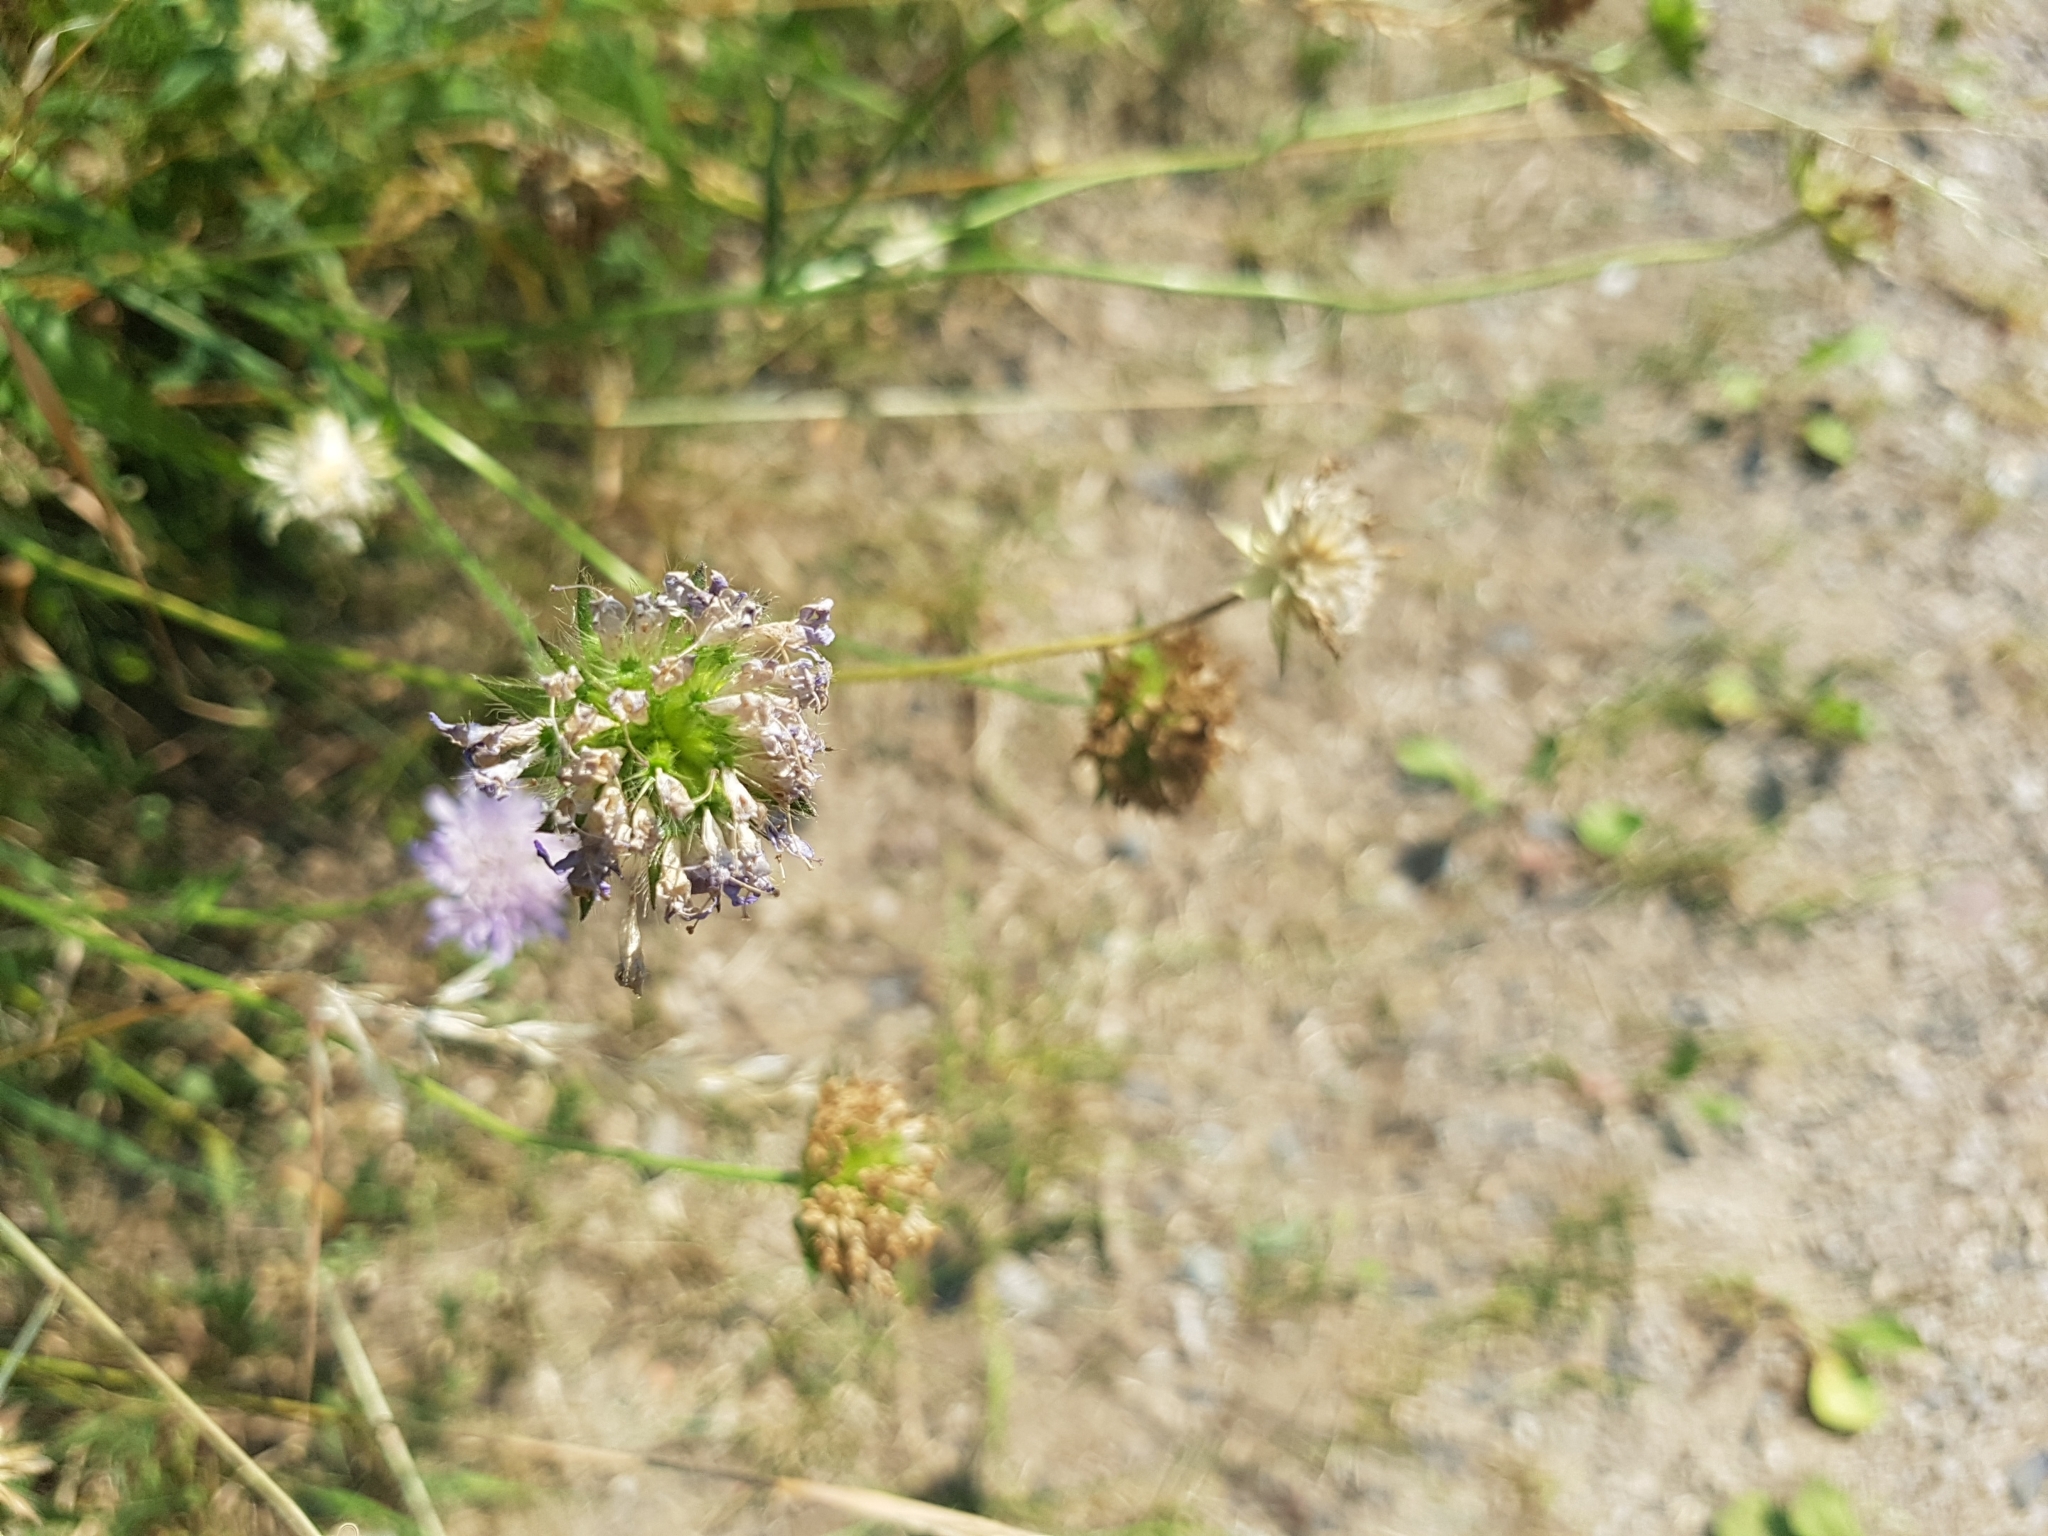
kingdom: Plantae
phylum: Tracheophyta
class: Magnoliopsida
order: Dipsacales
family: Caprifoliaceae
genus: Knautia
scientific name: Knautia arvensis
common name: Field scabiosa
